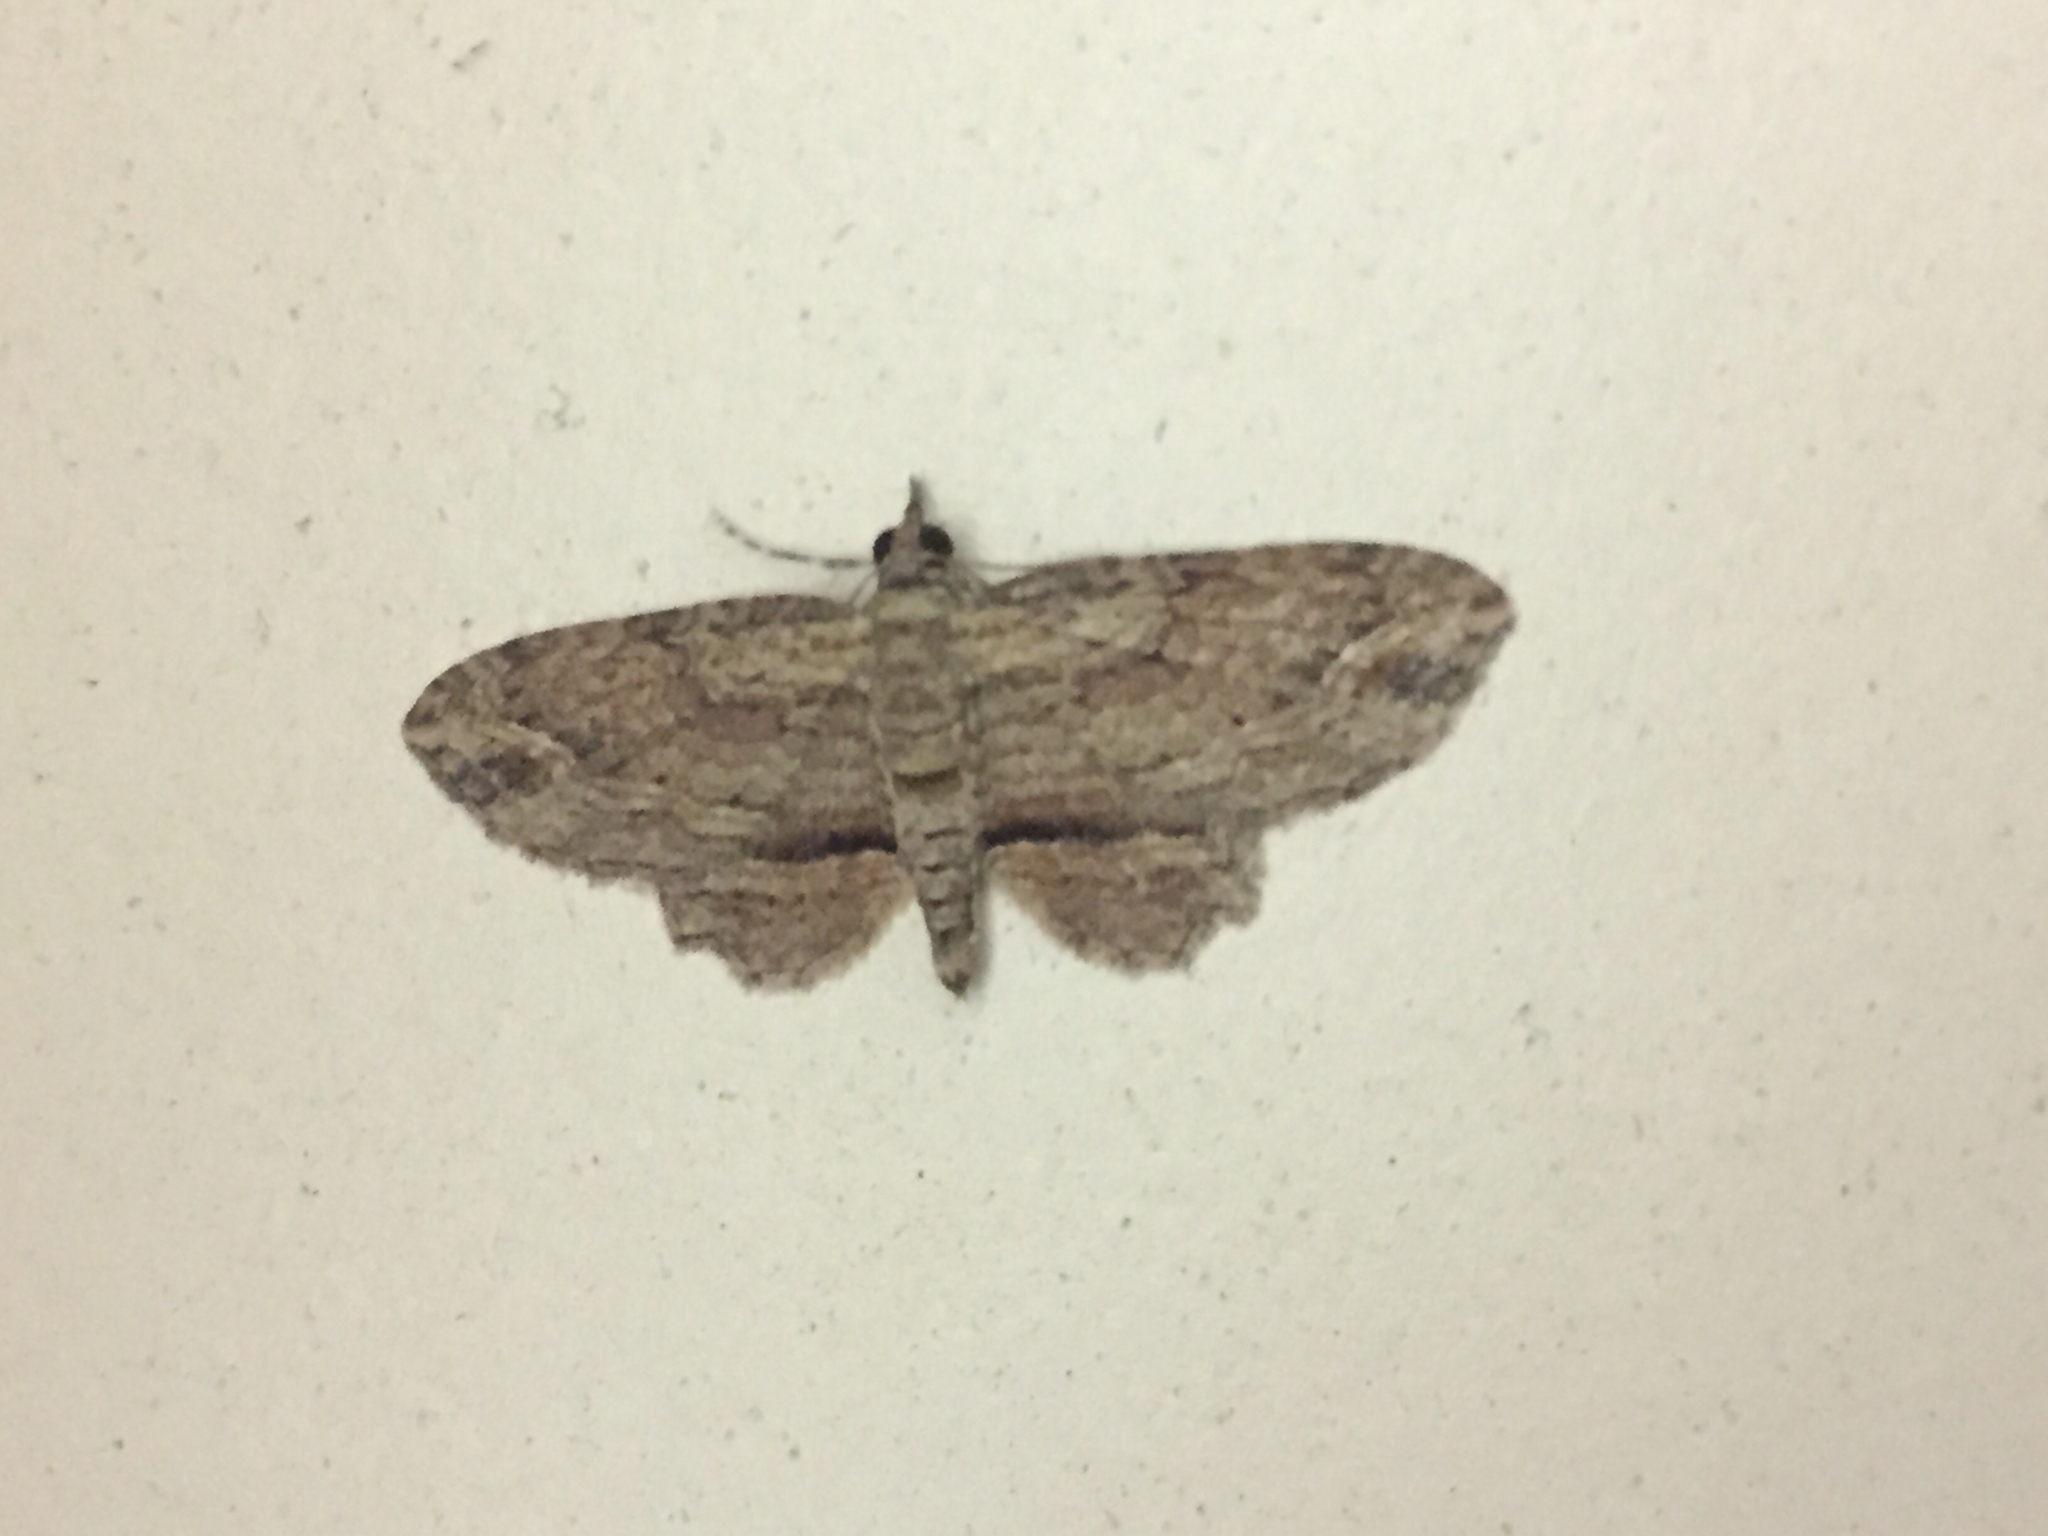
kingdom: Animalia
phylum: Arthropoda
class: Insecta
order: Lepidoptera
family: Geometridae
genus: Chloroclystis
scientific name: Chloroclystis filata
